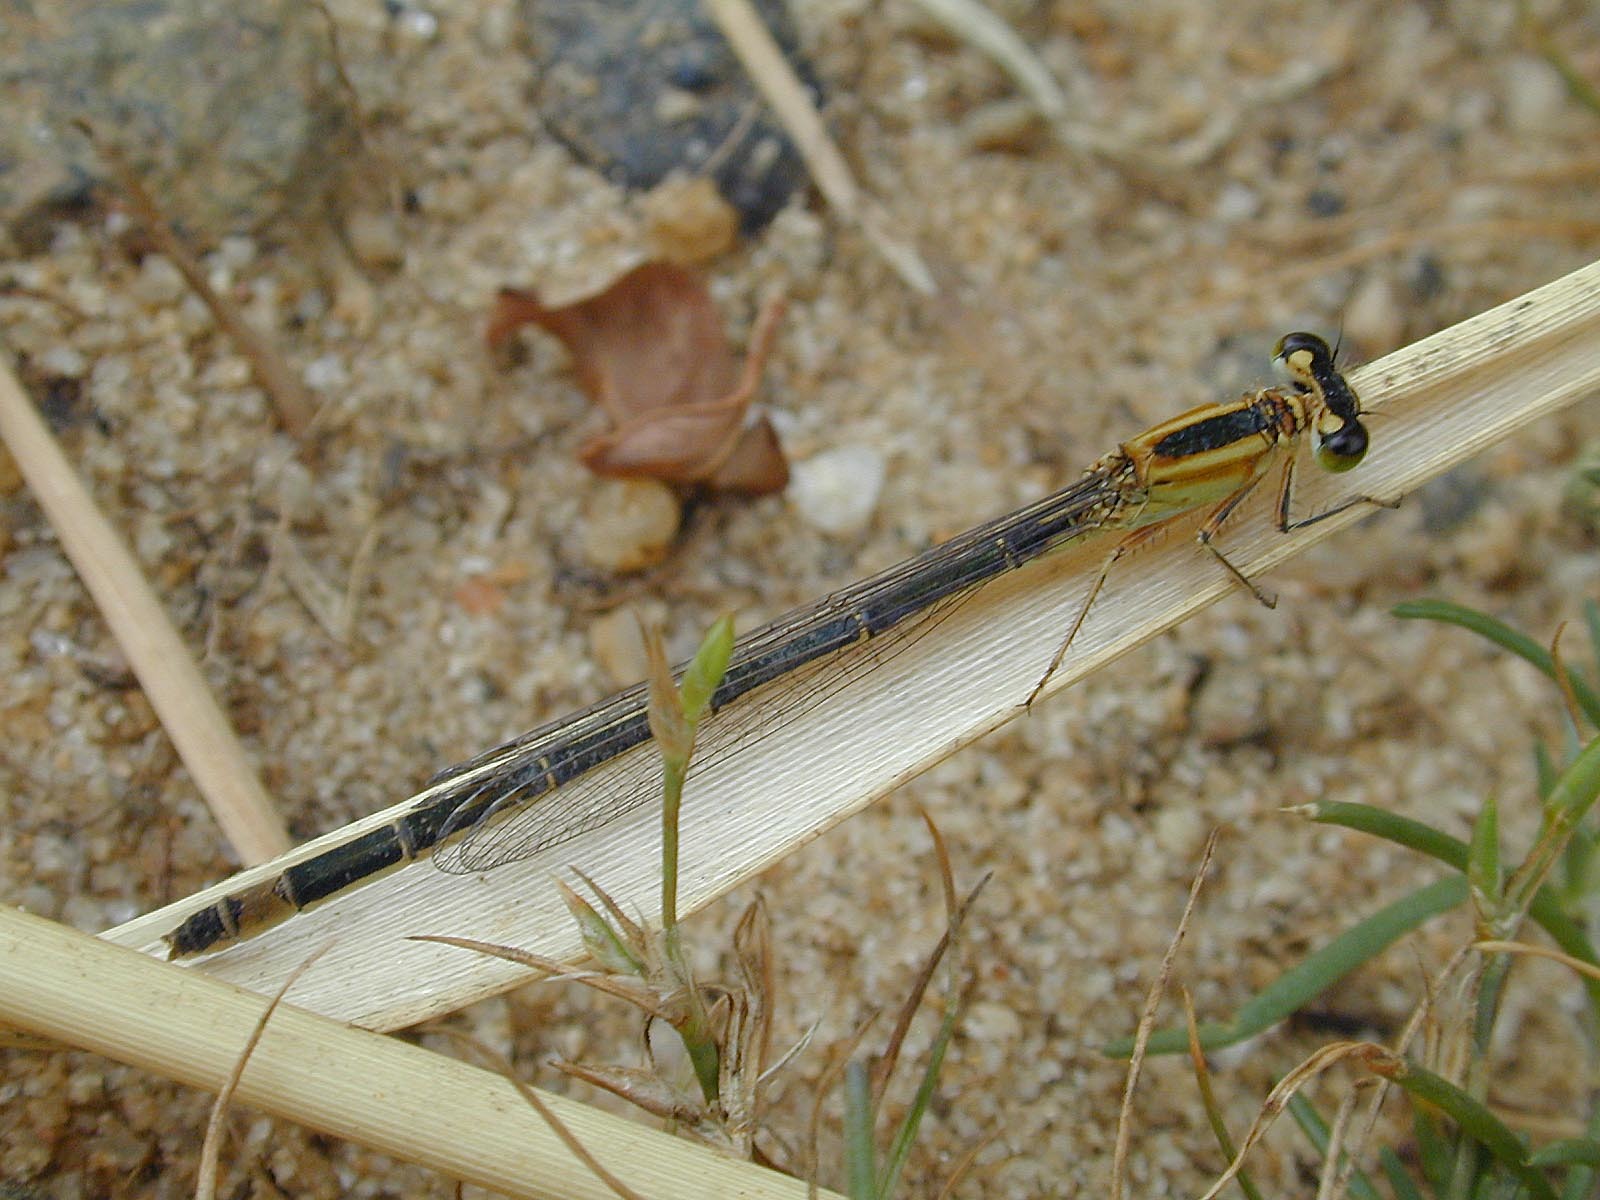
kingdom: Animalia
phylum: Arthropoda
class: Insecta
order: Odonata
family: Coenagrionidae
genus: Ischnura
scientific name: Ischnura elegans
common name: Blue-tailed damselfly
